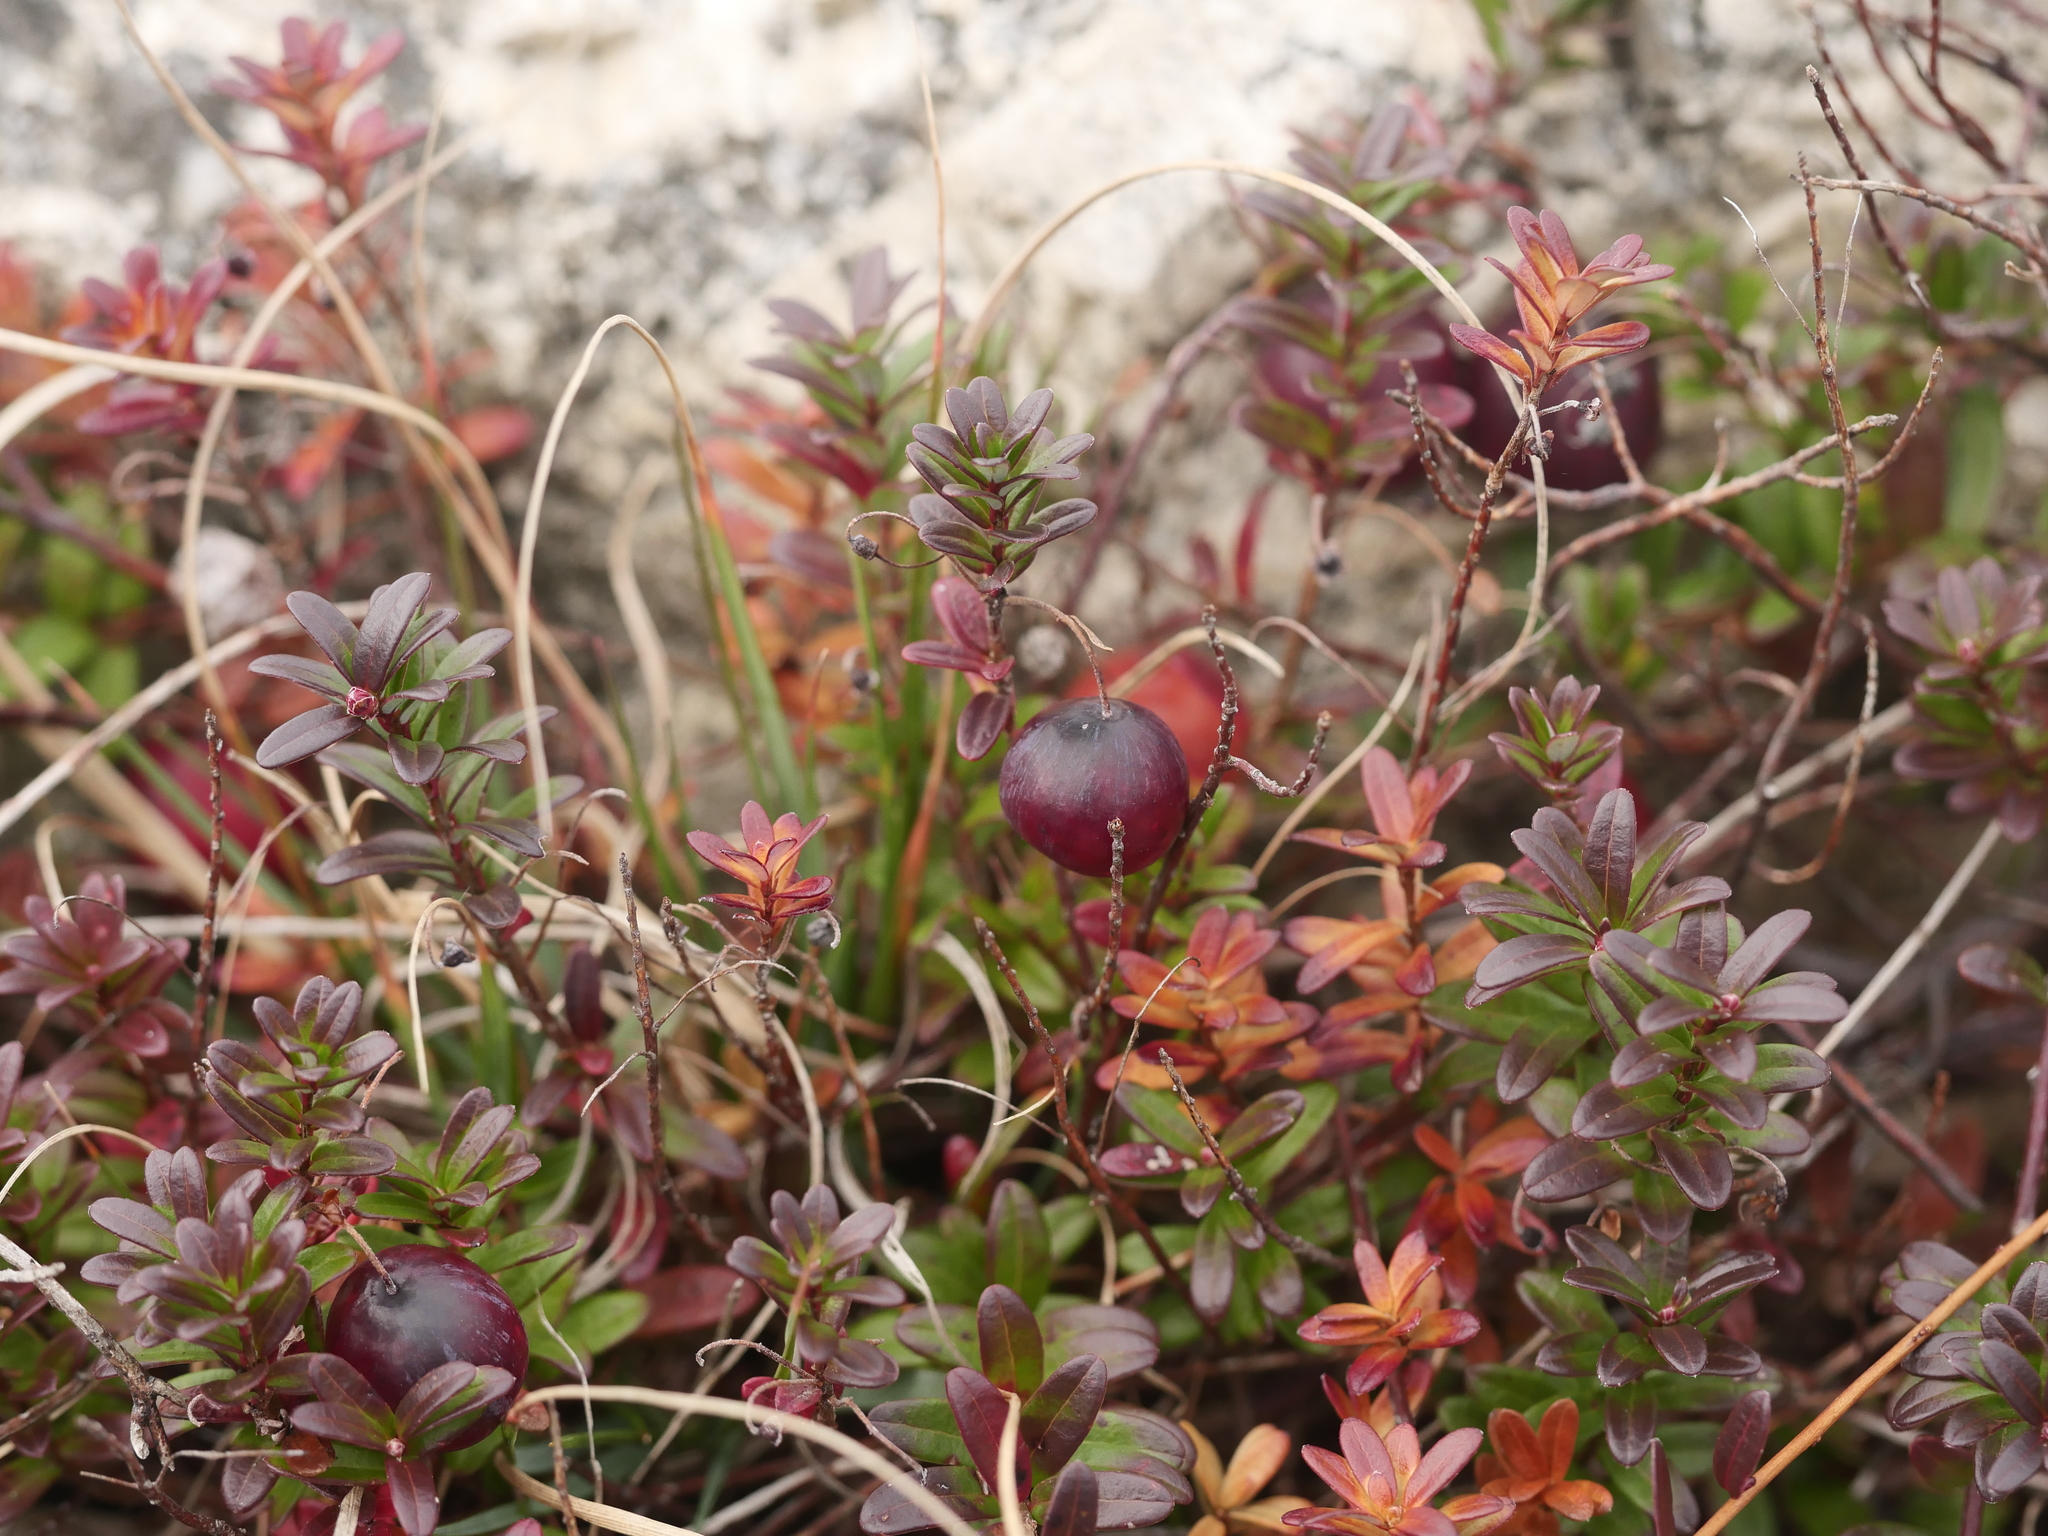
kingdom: Plantae
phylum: Tracheophyta
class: Magnoliopsida
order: Ericales
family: Ericaceae
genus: Vaccinium
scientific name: Vaccinium macrocarpon
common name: American cranberry
